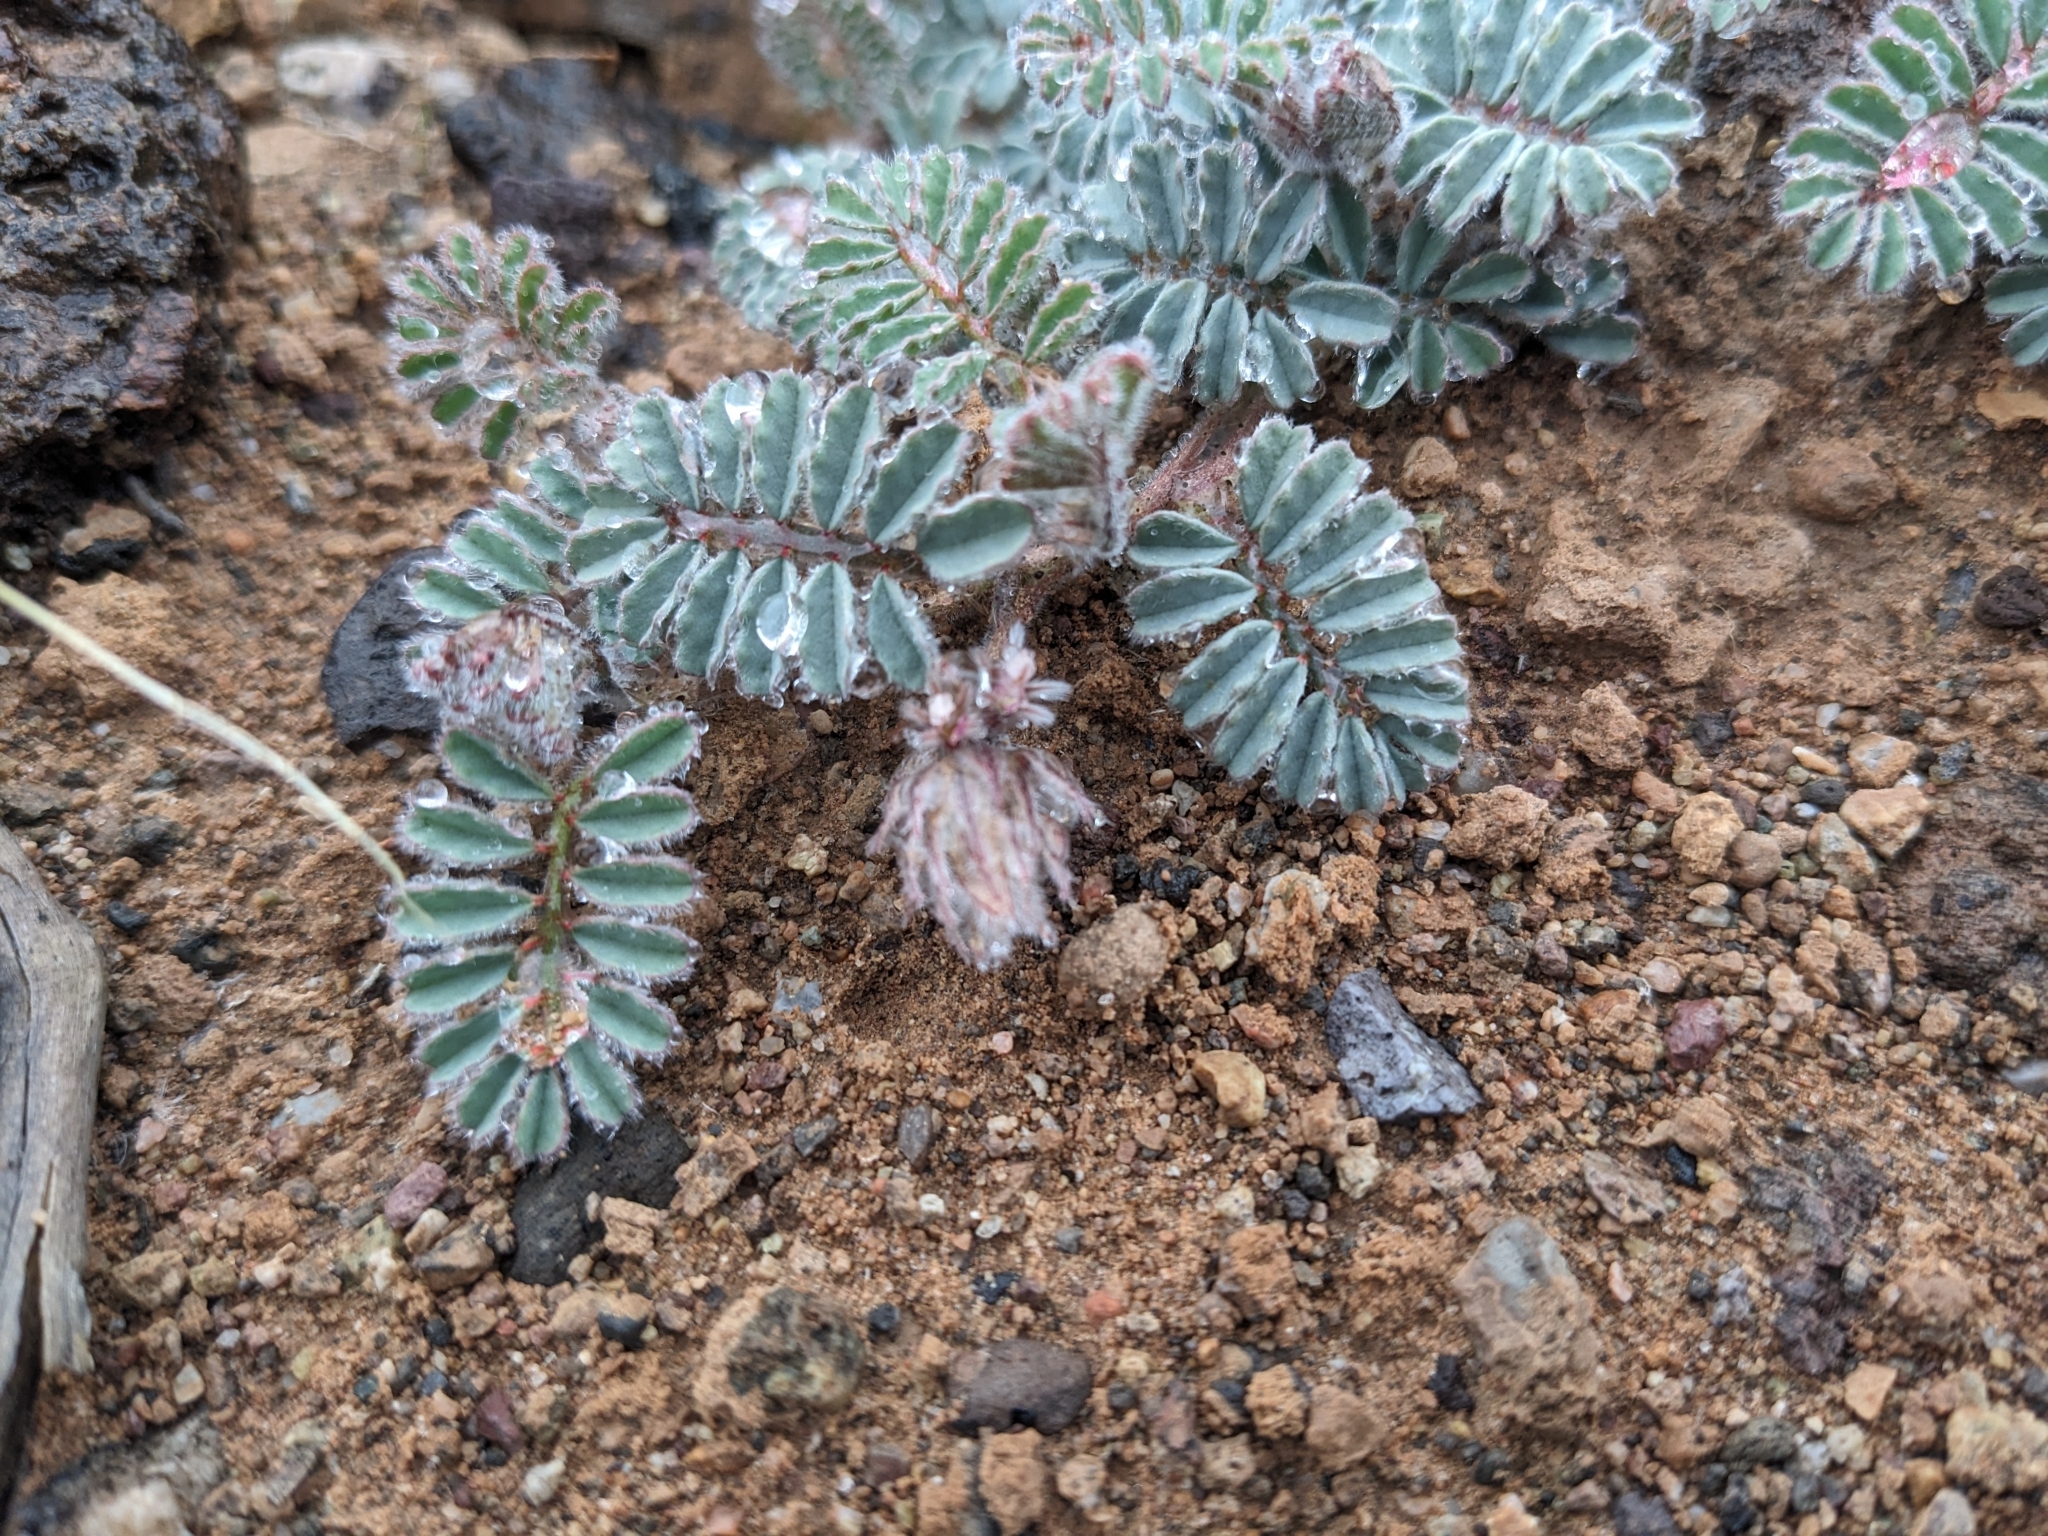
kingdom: Plantae
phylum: Tracheophyta
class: Magnoliopsida
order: Fabales
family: Fabaceae
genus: Dalea
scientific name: Dalea mollissima
